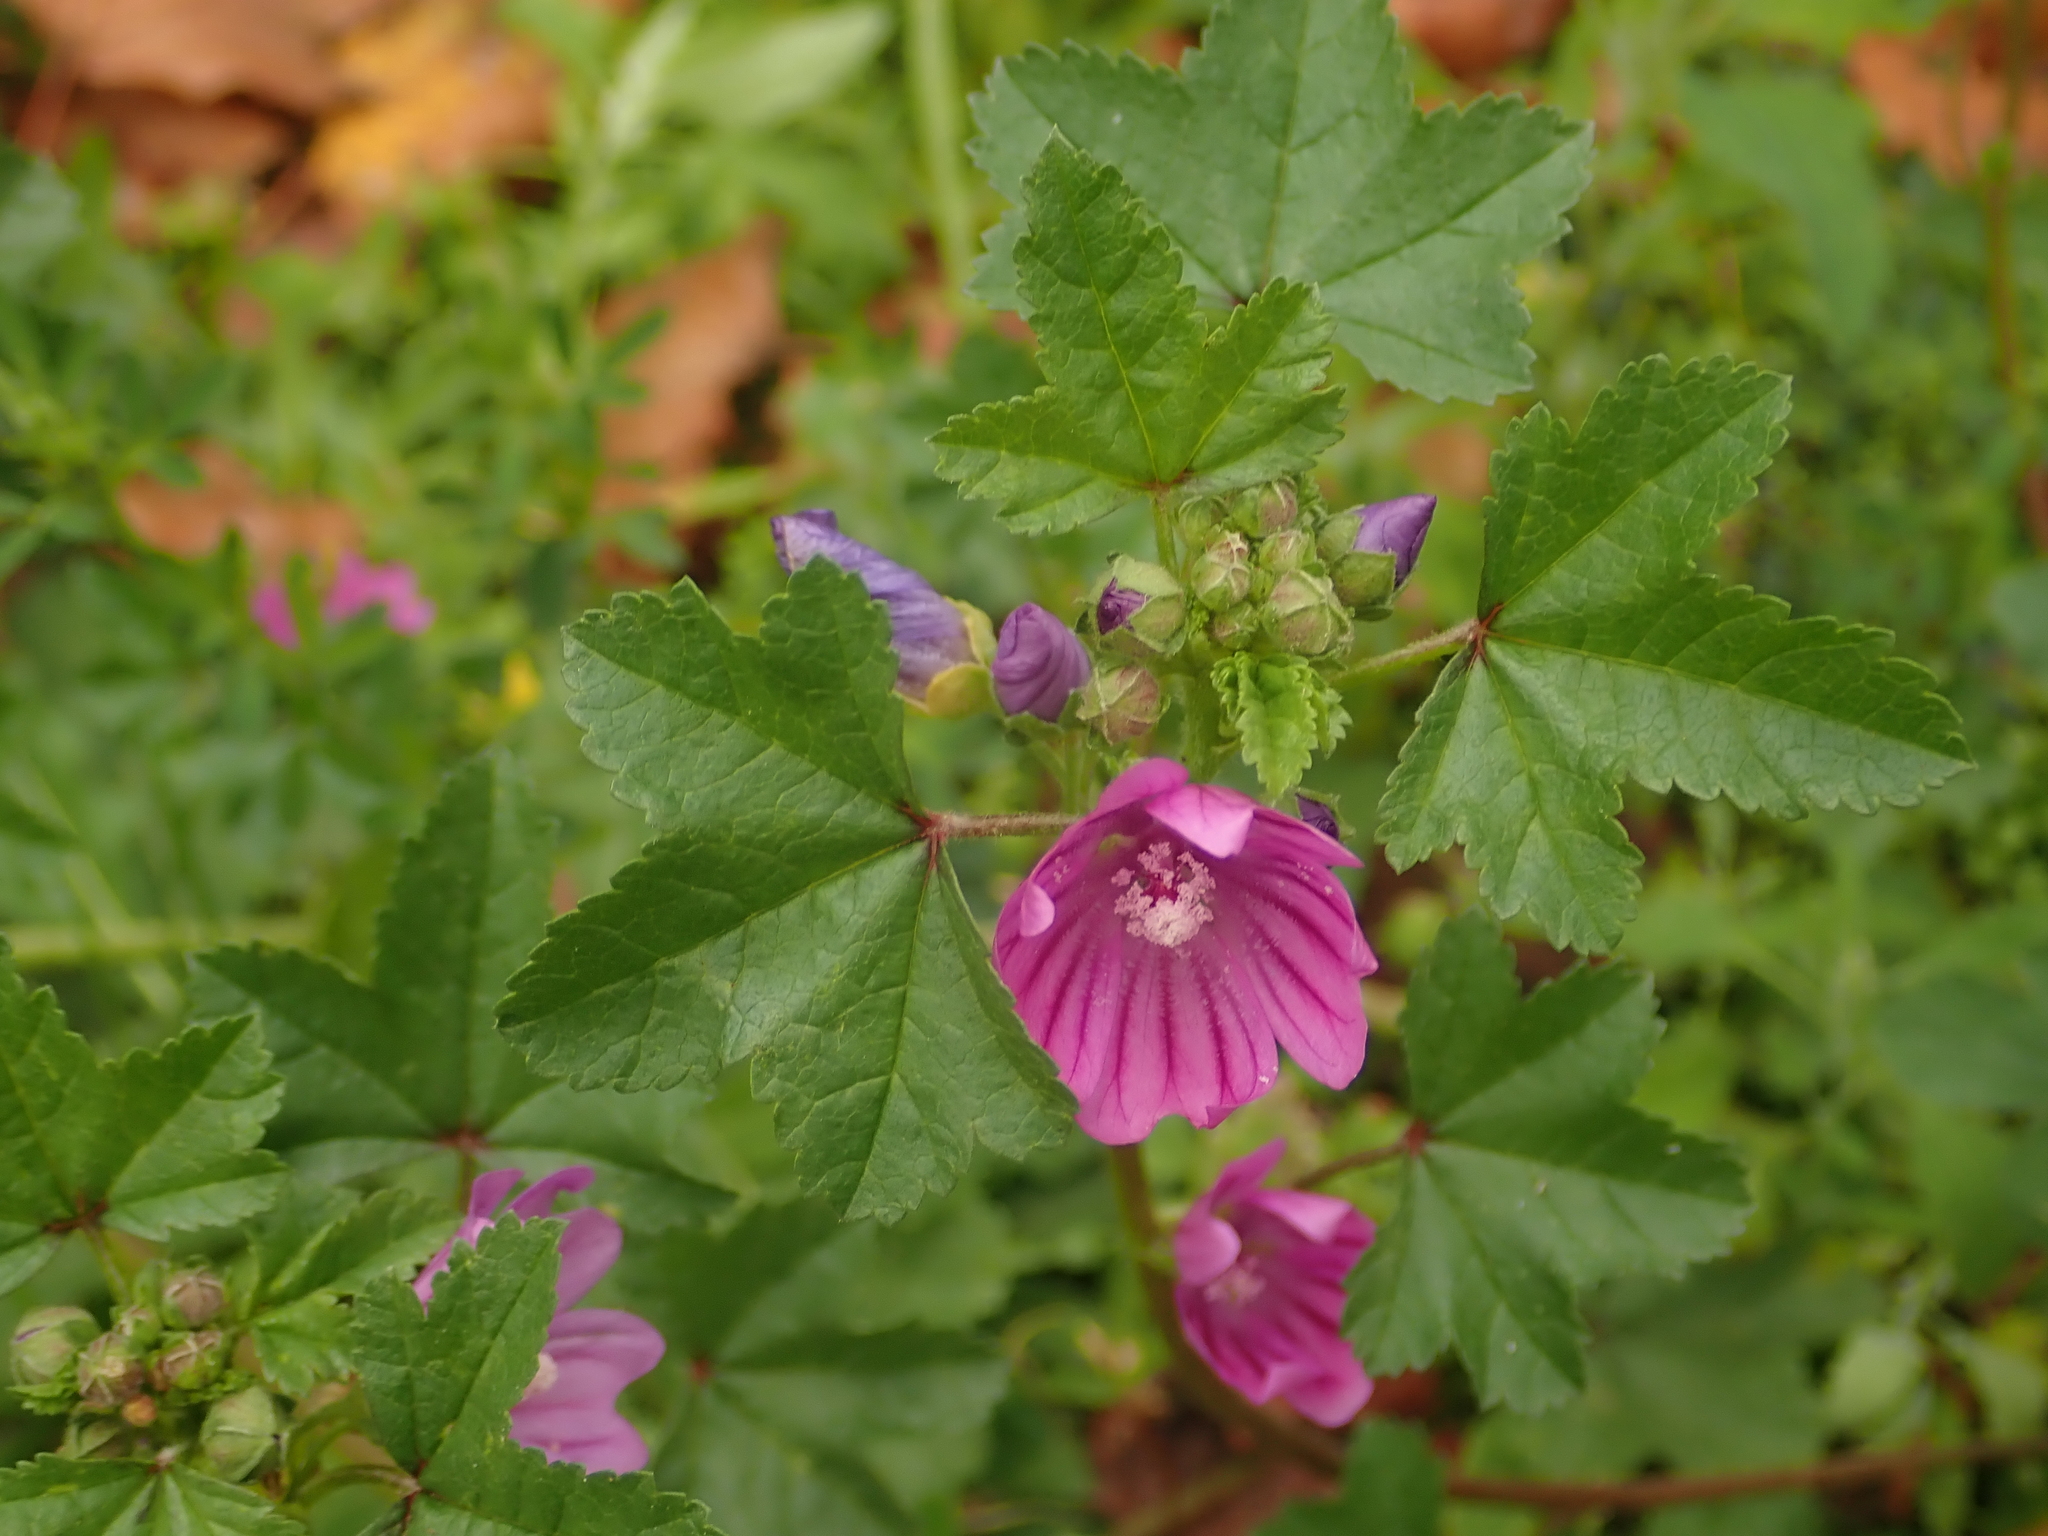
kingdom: Plantae
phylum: Tracheophyta
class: Magnoliopsida
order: Malvales
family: Malvaceae
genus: Malva
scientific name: Malva sylvestris
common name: Common mallow
